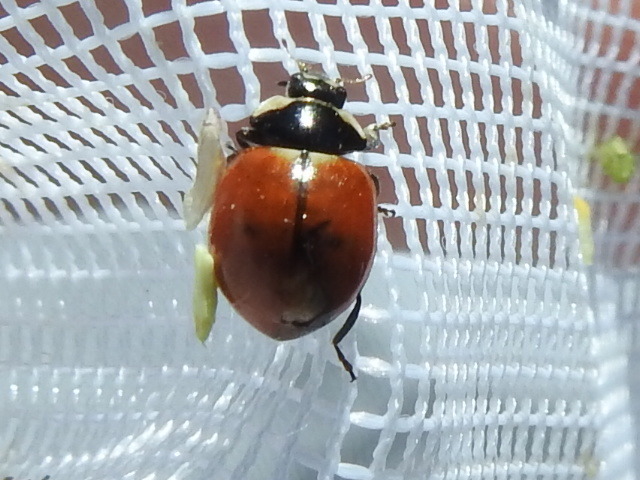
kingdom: Animalia
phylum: Arthropoda
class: Insecta
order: Coleoptera
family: Coccinellidae
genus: Coccinella
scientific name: Coccinella trifasciata
